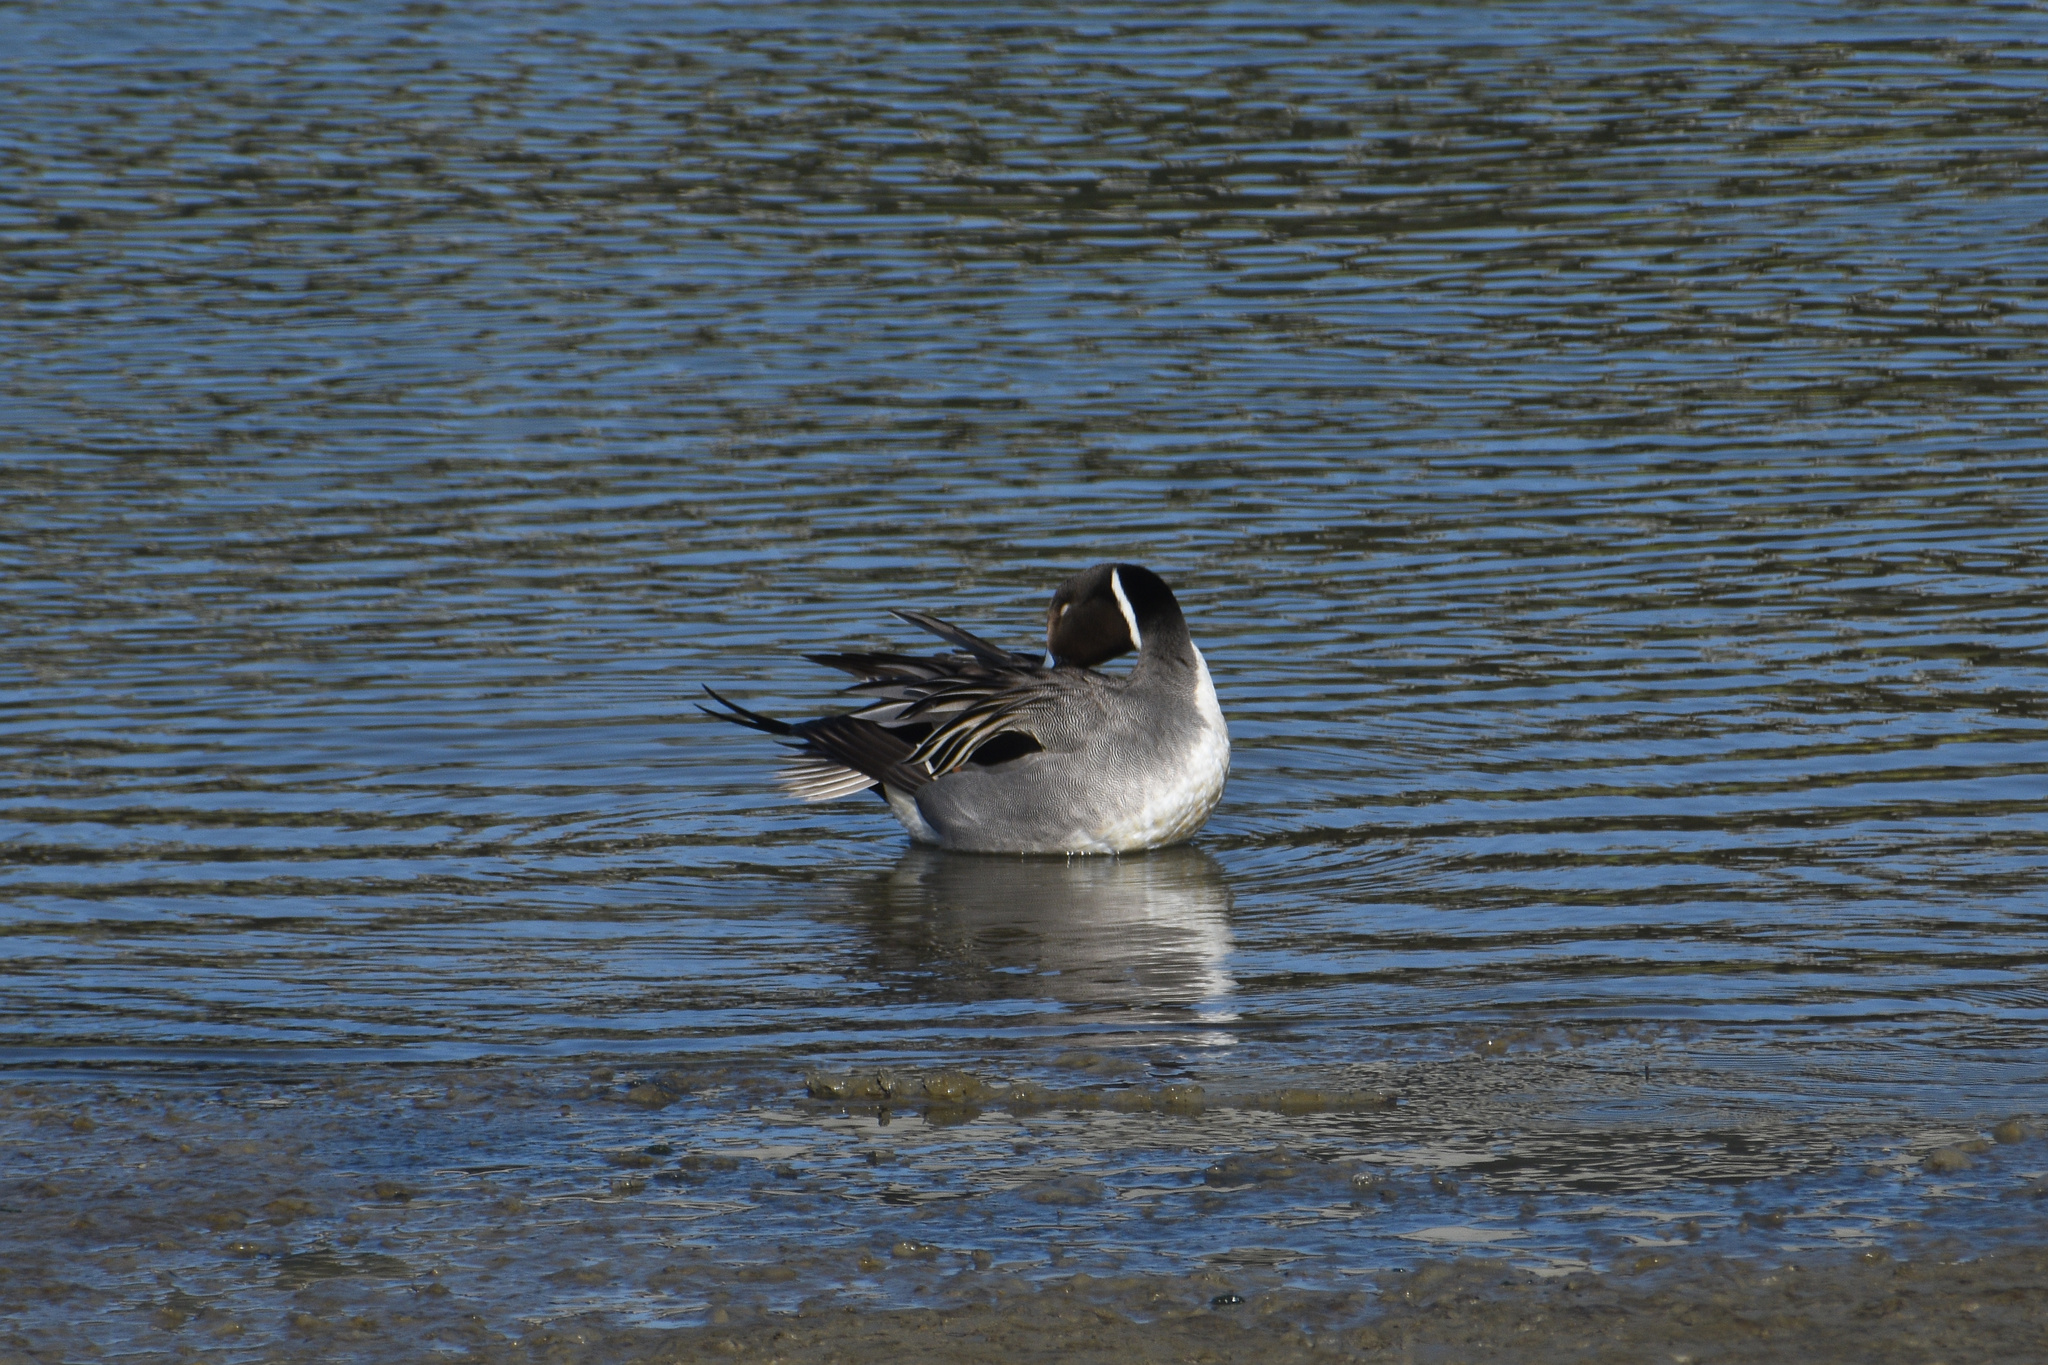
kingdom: Animalia
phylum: Chordata
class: Aves
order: Anseriformes
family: Anatidae
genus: Anas
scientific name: Anas acuta
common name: Northern pintail
